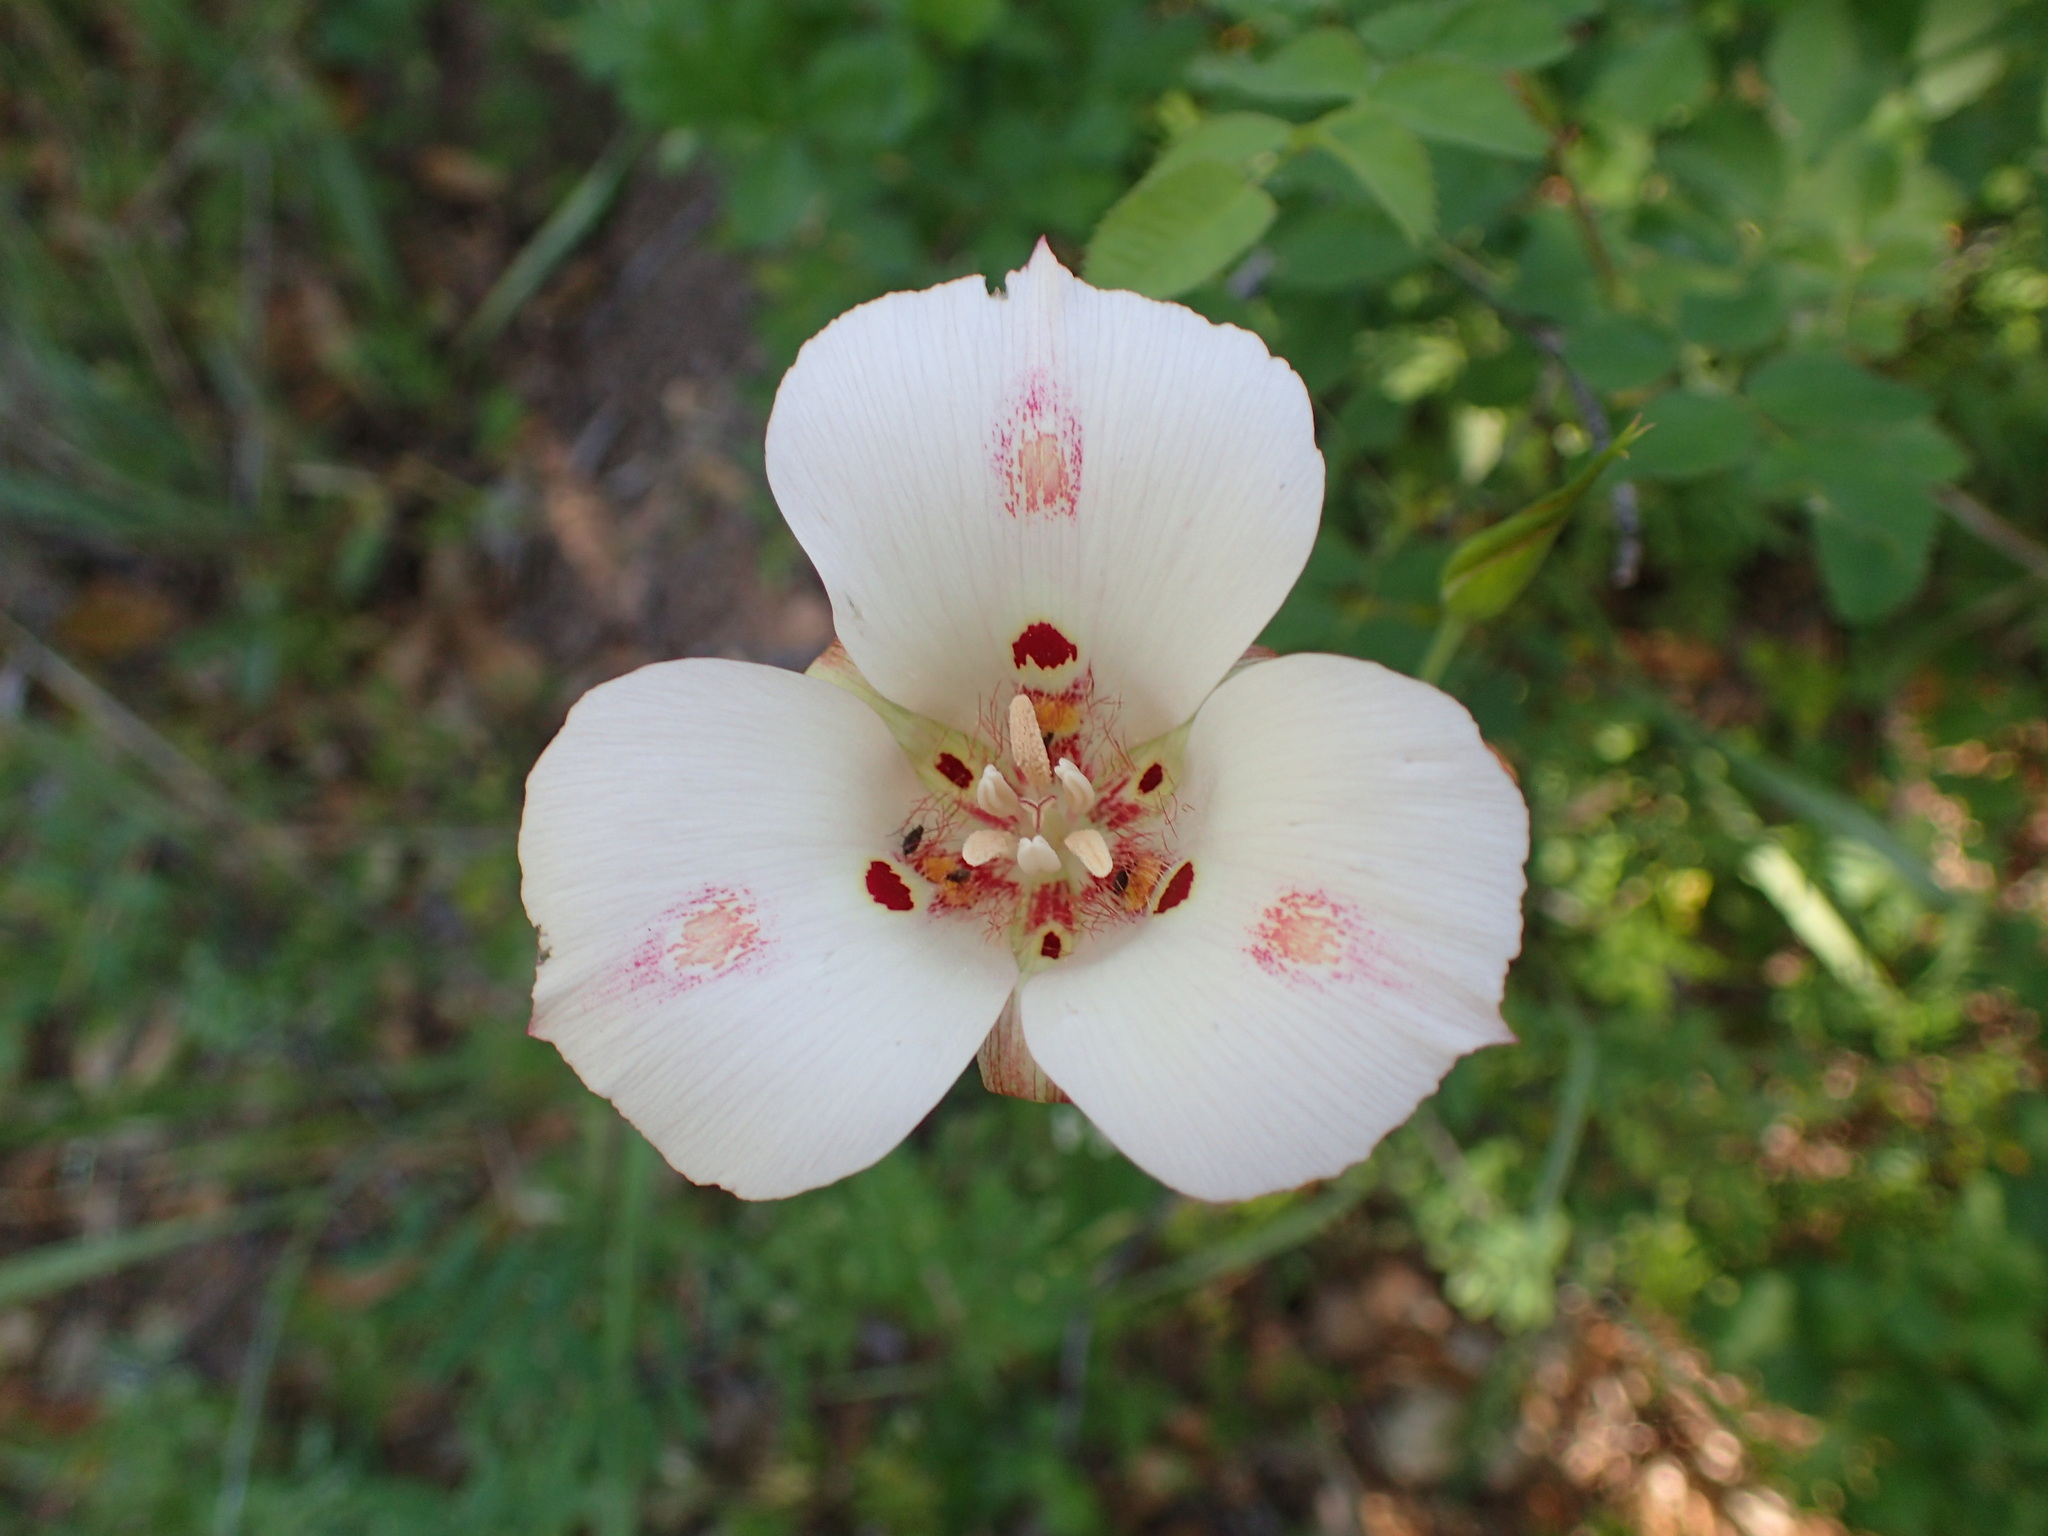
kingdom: Plantae
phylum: Tracheophyta
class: Liliopsida
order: Liliales
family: Liliaceae
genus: Calochortus
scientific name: Calochortus venustus
